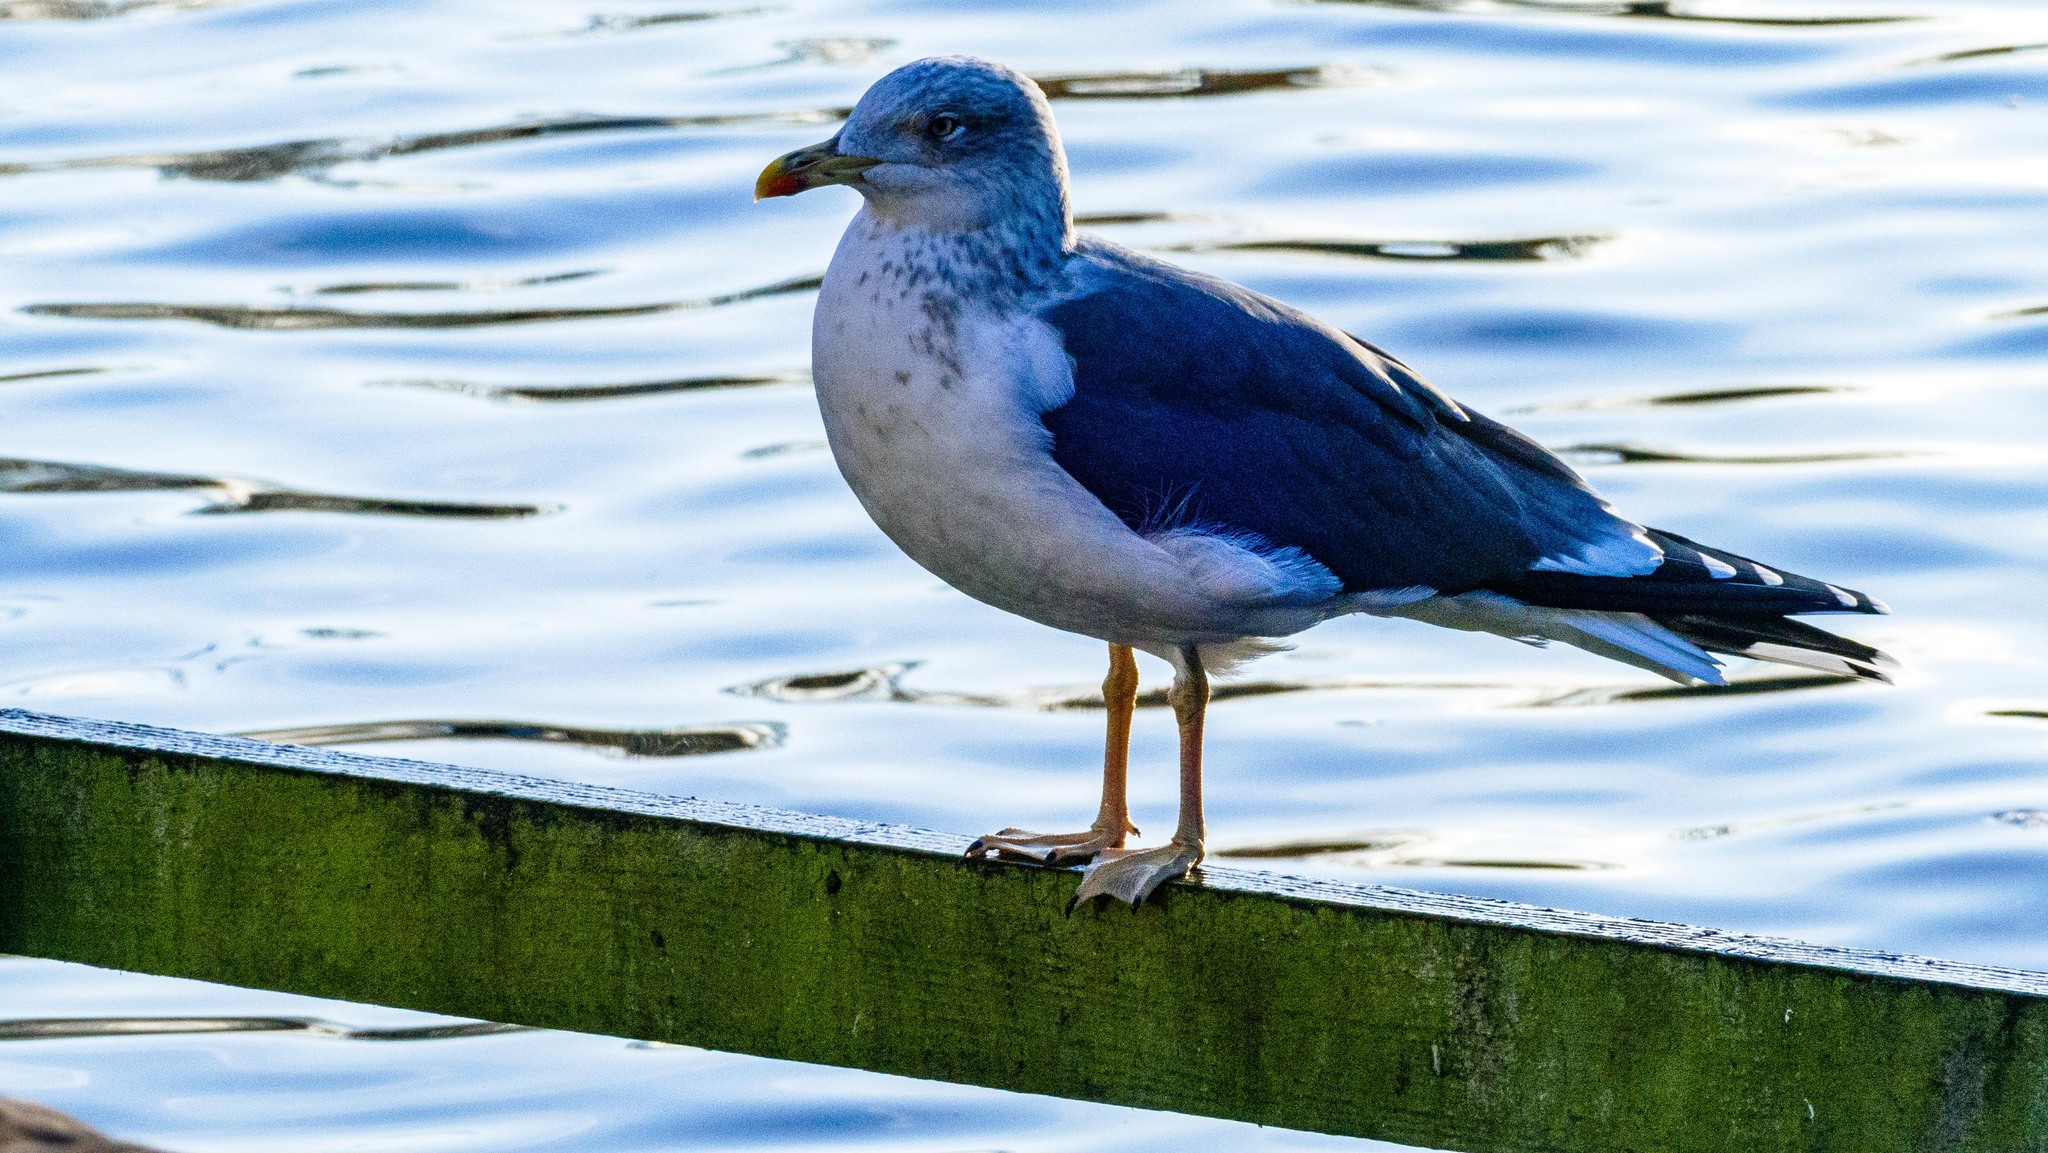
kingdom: Animalia
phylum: Chordata
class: Aves
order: Charadriiformes
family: Laridae
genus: Larus
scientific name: Larus fuscus
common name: Lesser black-backed gull
